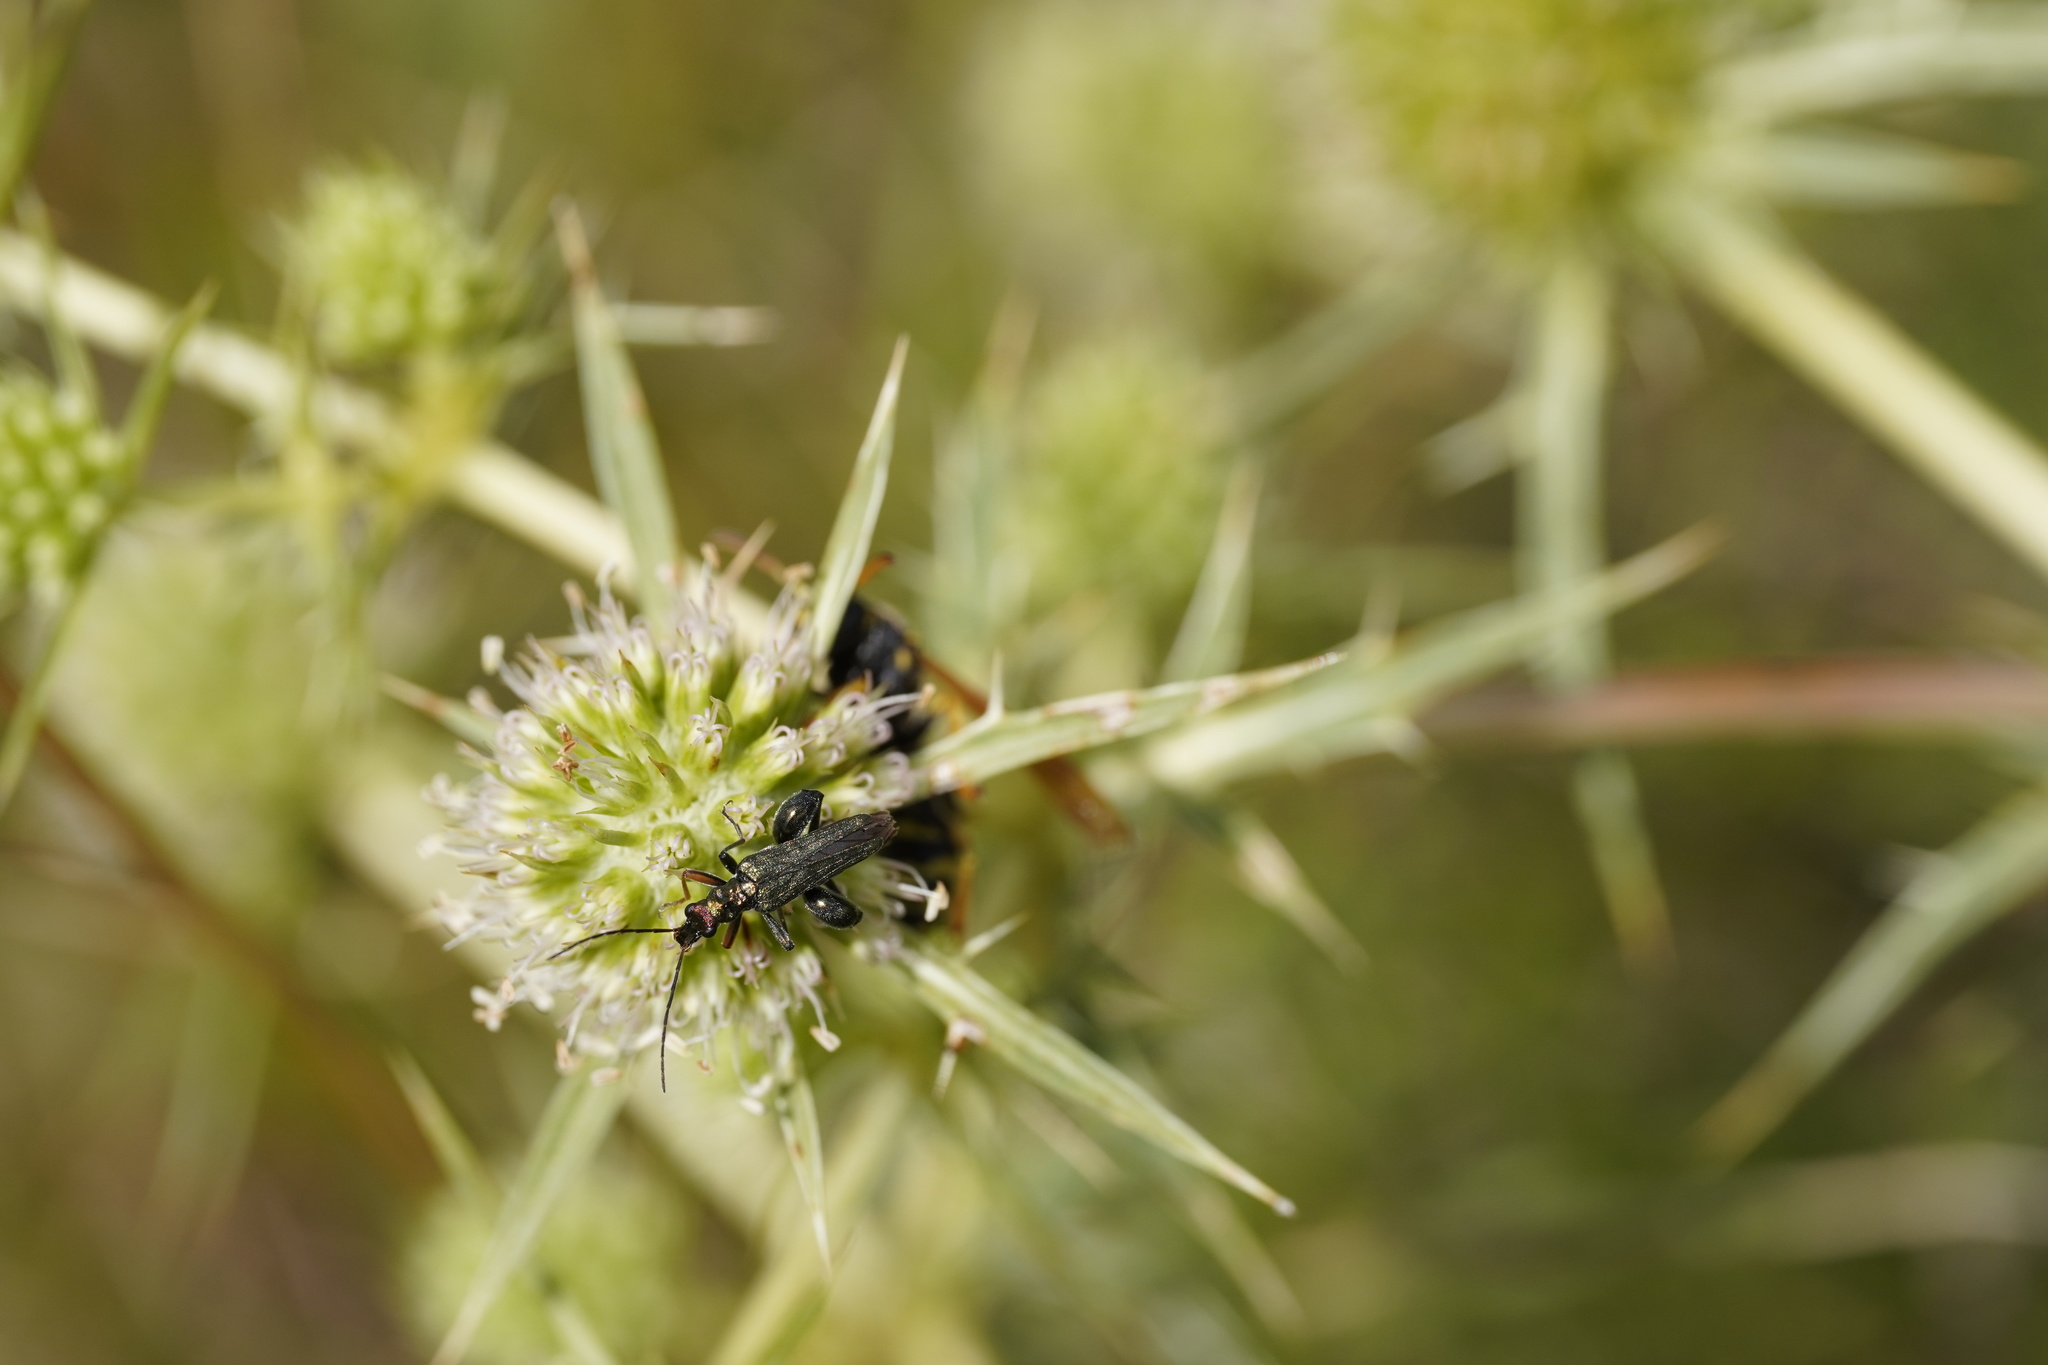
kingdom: Animalia
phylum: Arthropoda
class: Insecta
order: Coleoptera
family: Oedemeridae
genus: Oedemera
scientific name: Oedemera flavipes
